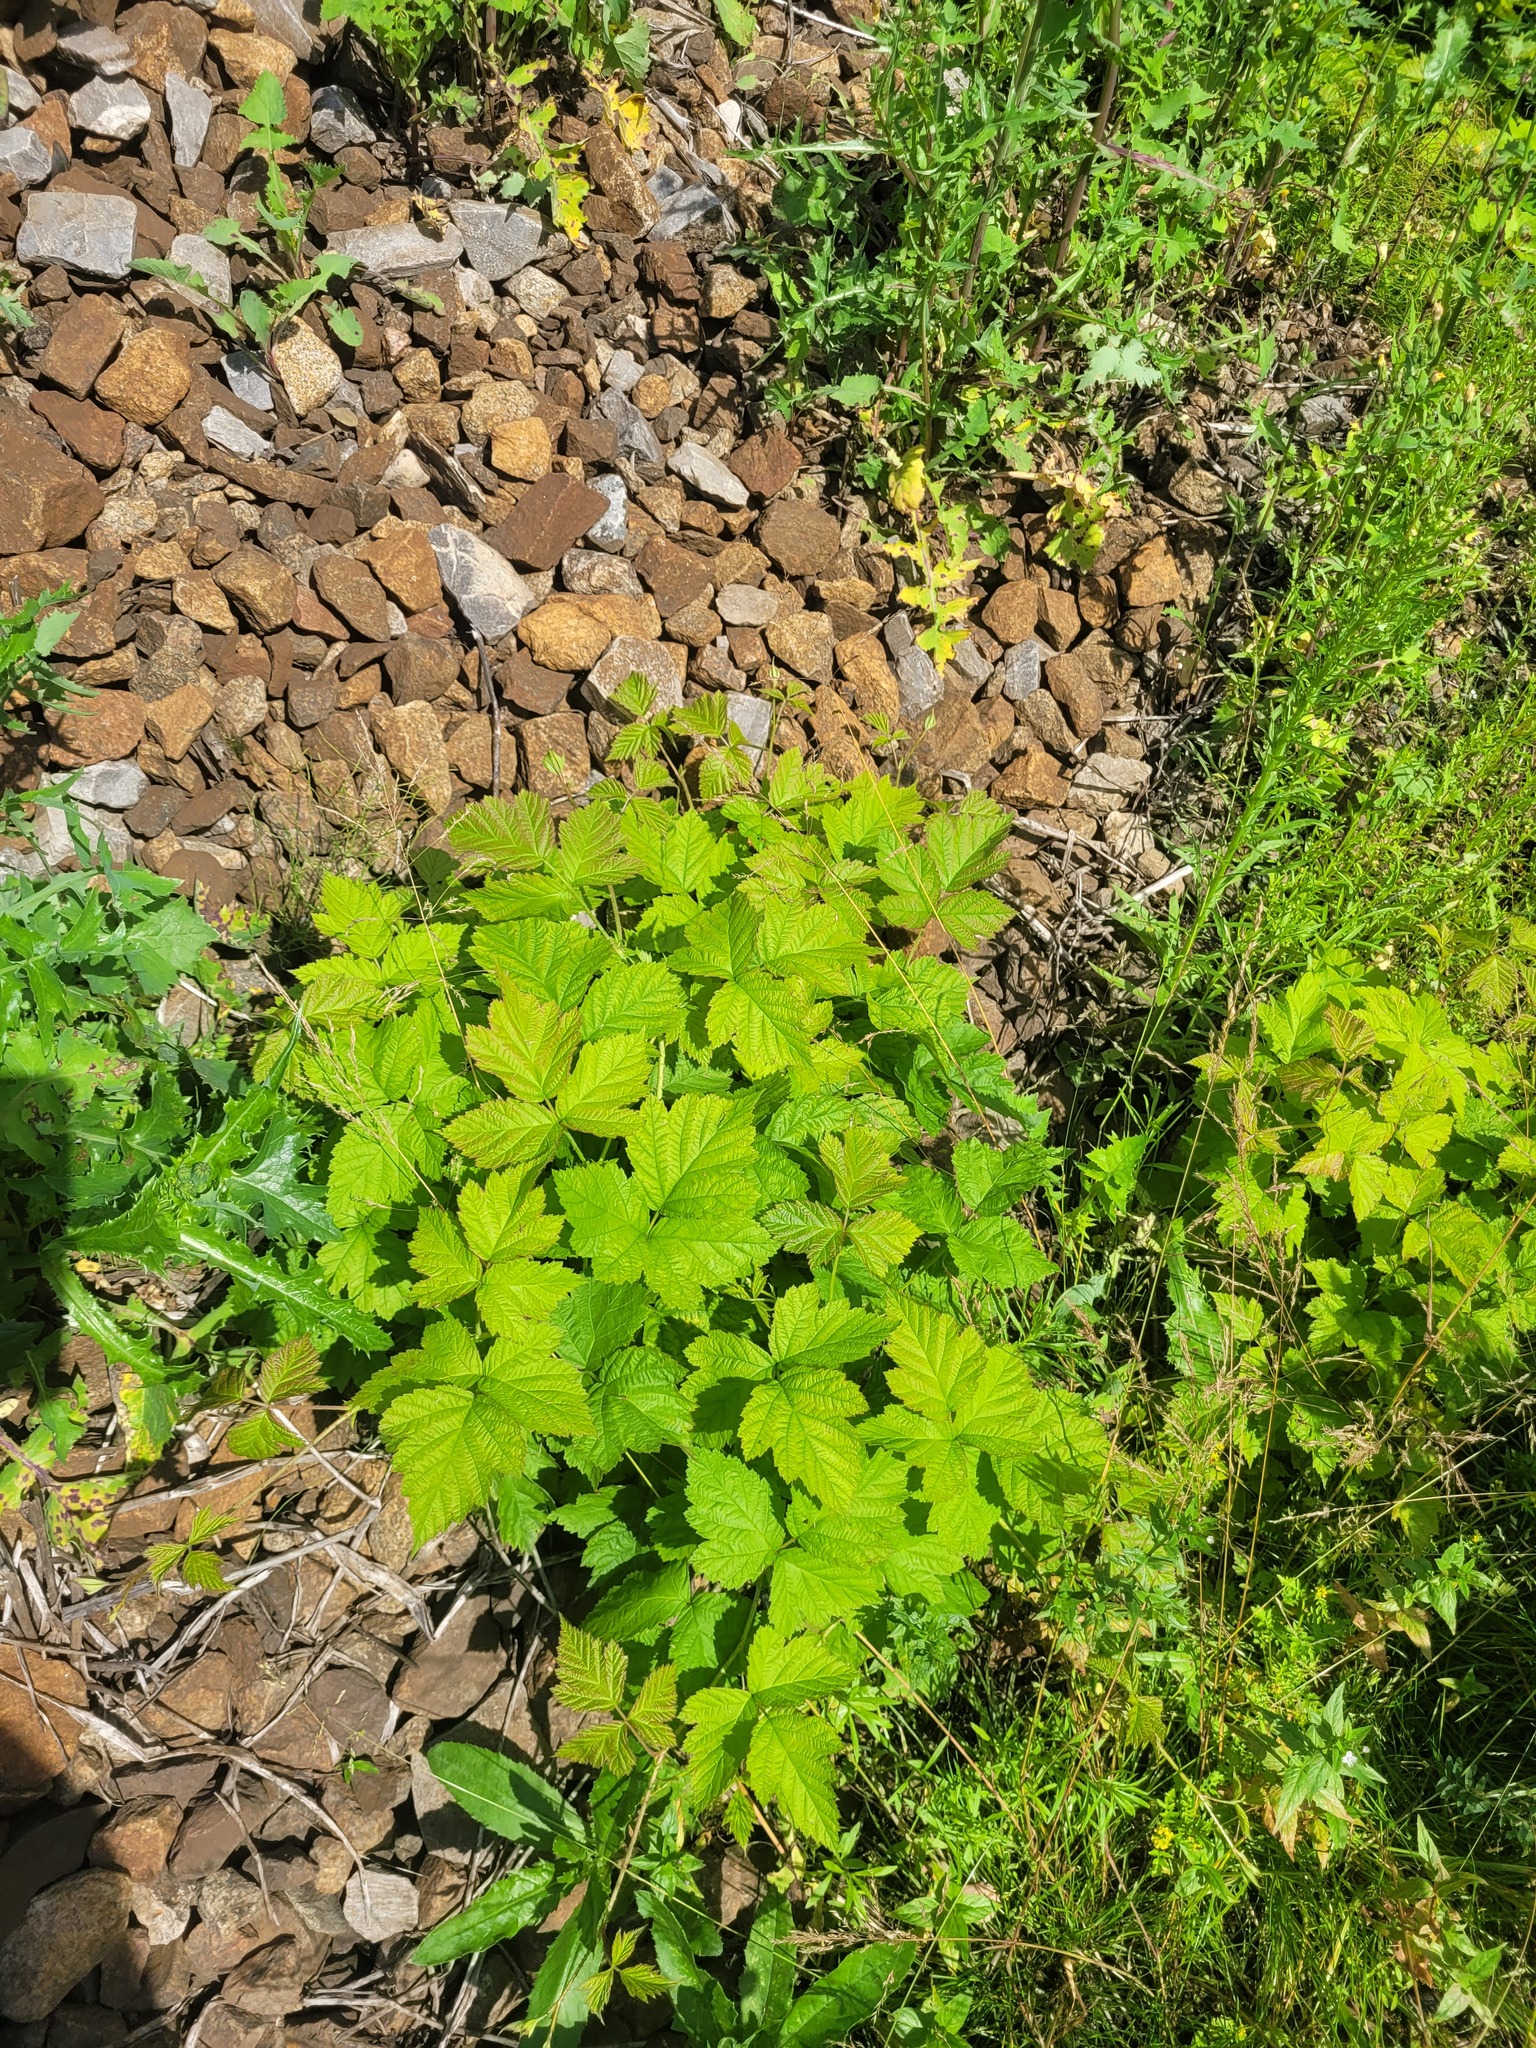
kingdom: Plantae
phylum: Tracheophyta
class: Magnoliopsida
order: Rosales
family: Rosaceae
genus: Rubus
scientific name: Rubus caesius
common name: Dewberry
